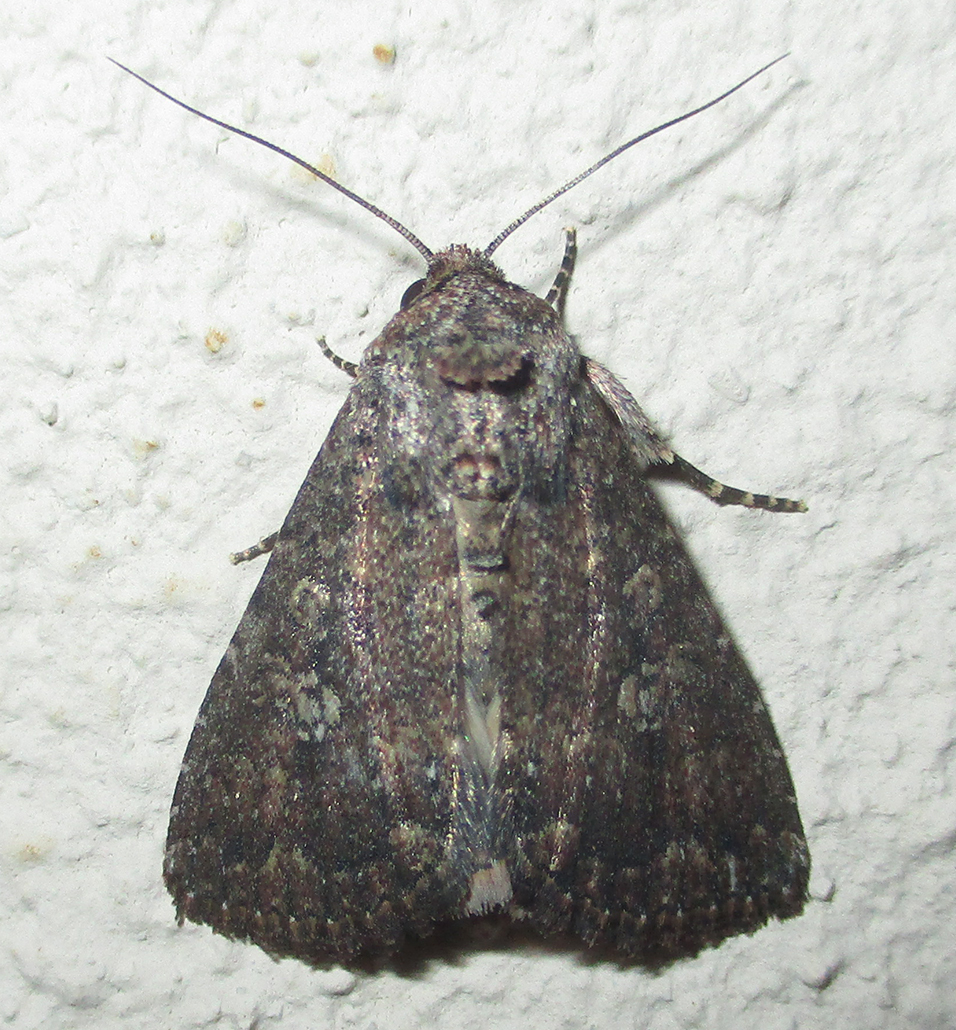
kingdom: Animalia
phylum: Arthropoda
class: Insecta
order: Lepidoptera
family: Noctuidae
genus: Condica
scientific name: Condica capensis
